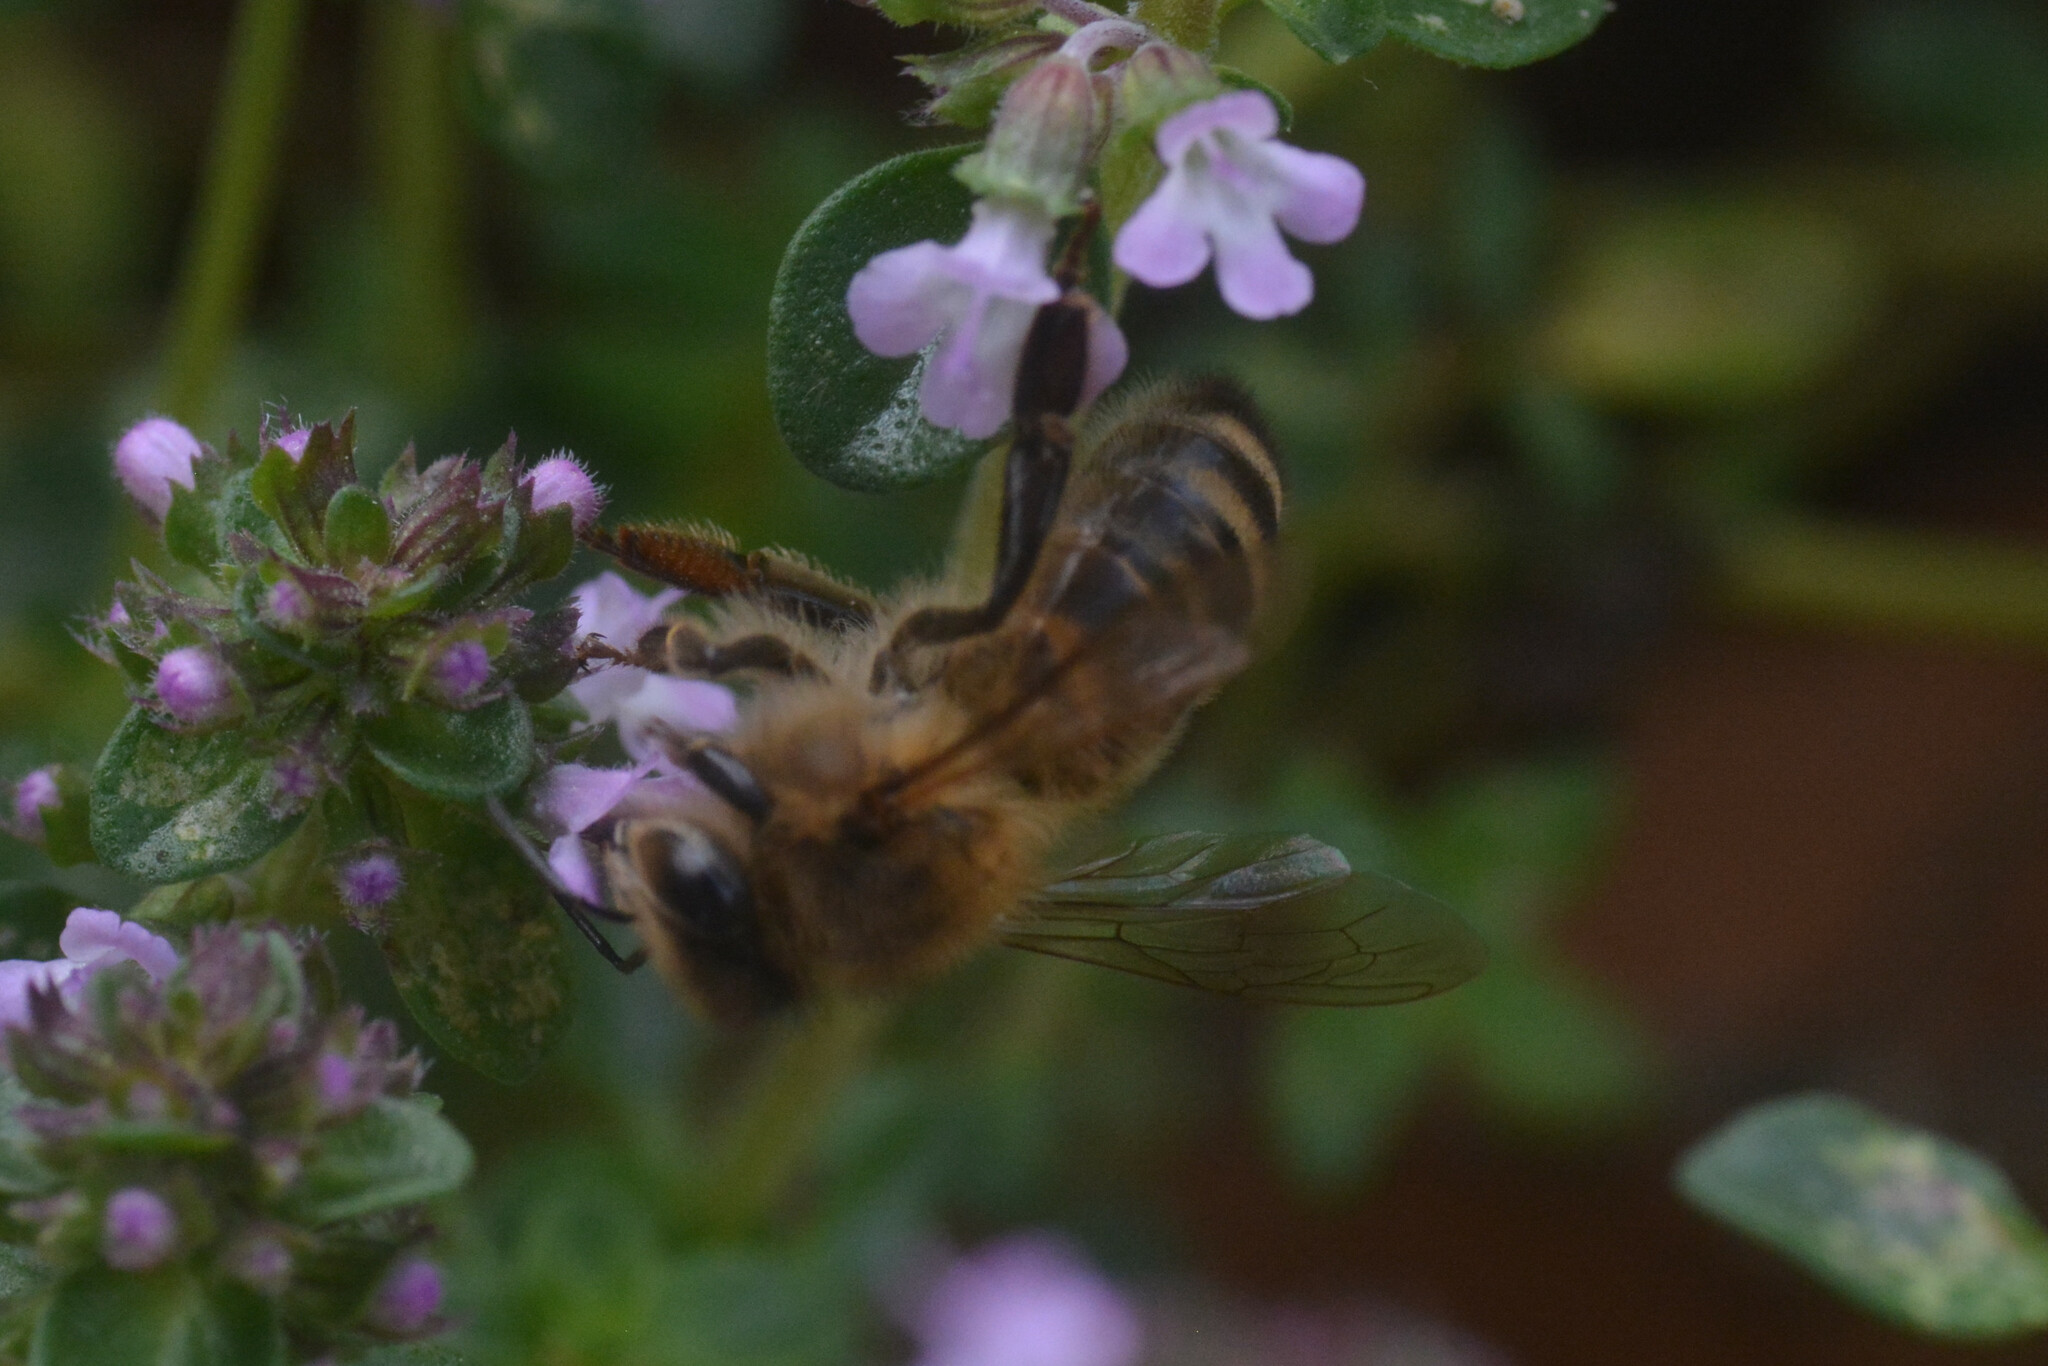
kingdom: Animalia
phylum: Arthropoda
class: Insecta
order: Hymenoptera
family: Apidae
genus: Apis
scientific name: Apis mellifera
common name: Honey bee
